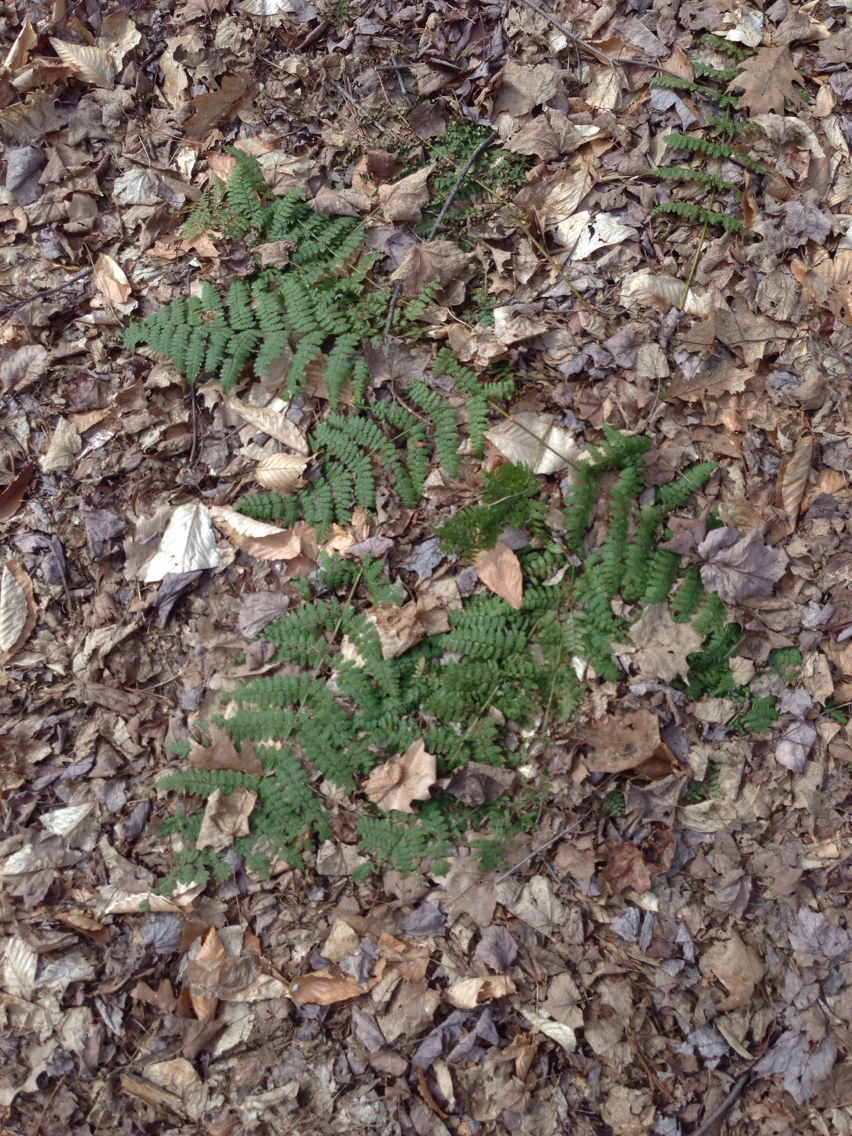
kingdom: Plantae
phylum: Tracheophyta
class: Polypodiopsida
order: Polypodiales
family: Dryopteridaceae
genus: Dryopteris
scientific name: Dryopteris intermedia
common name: Evergreen wood fern
